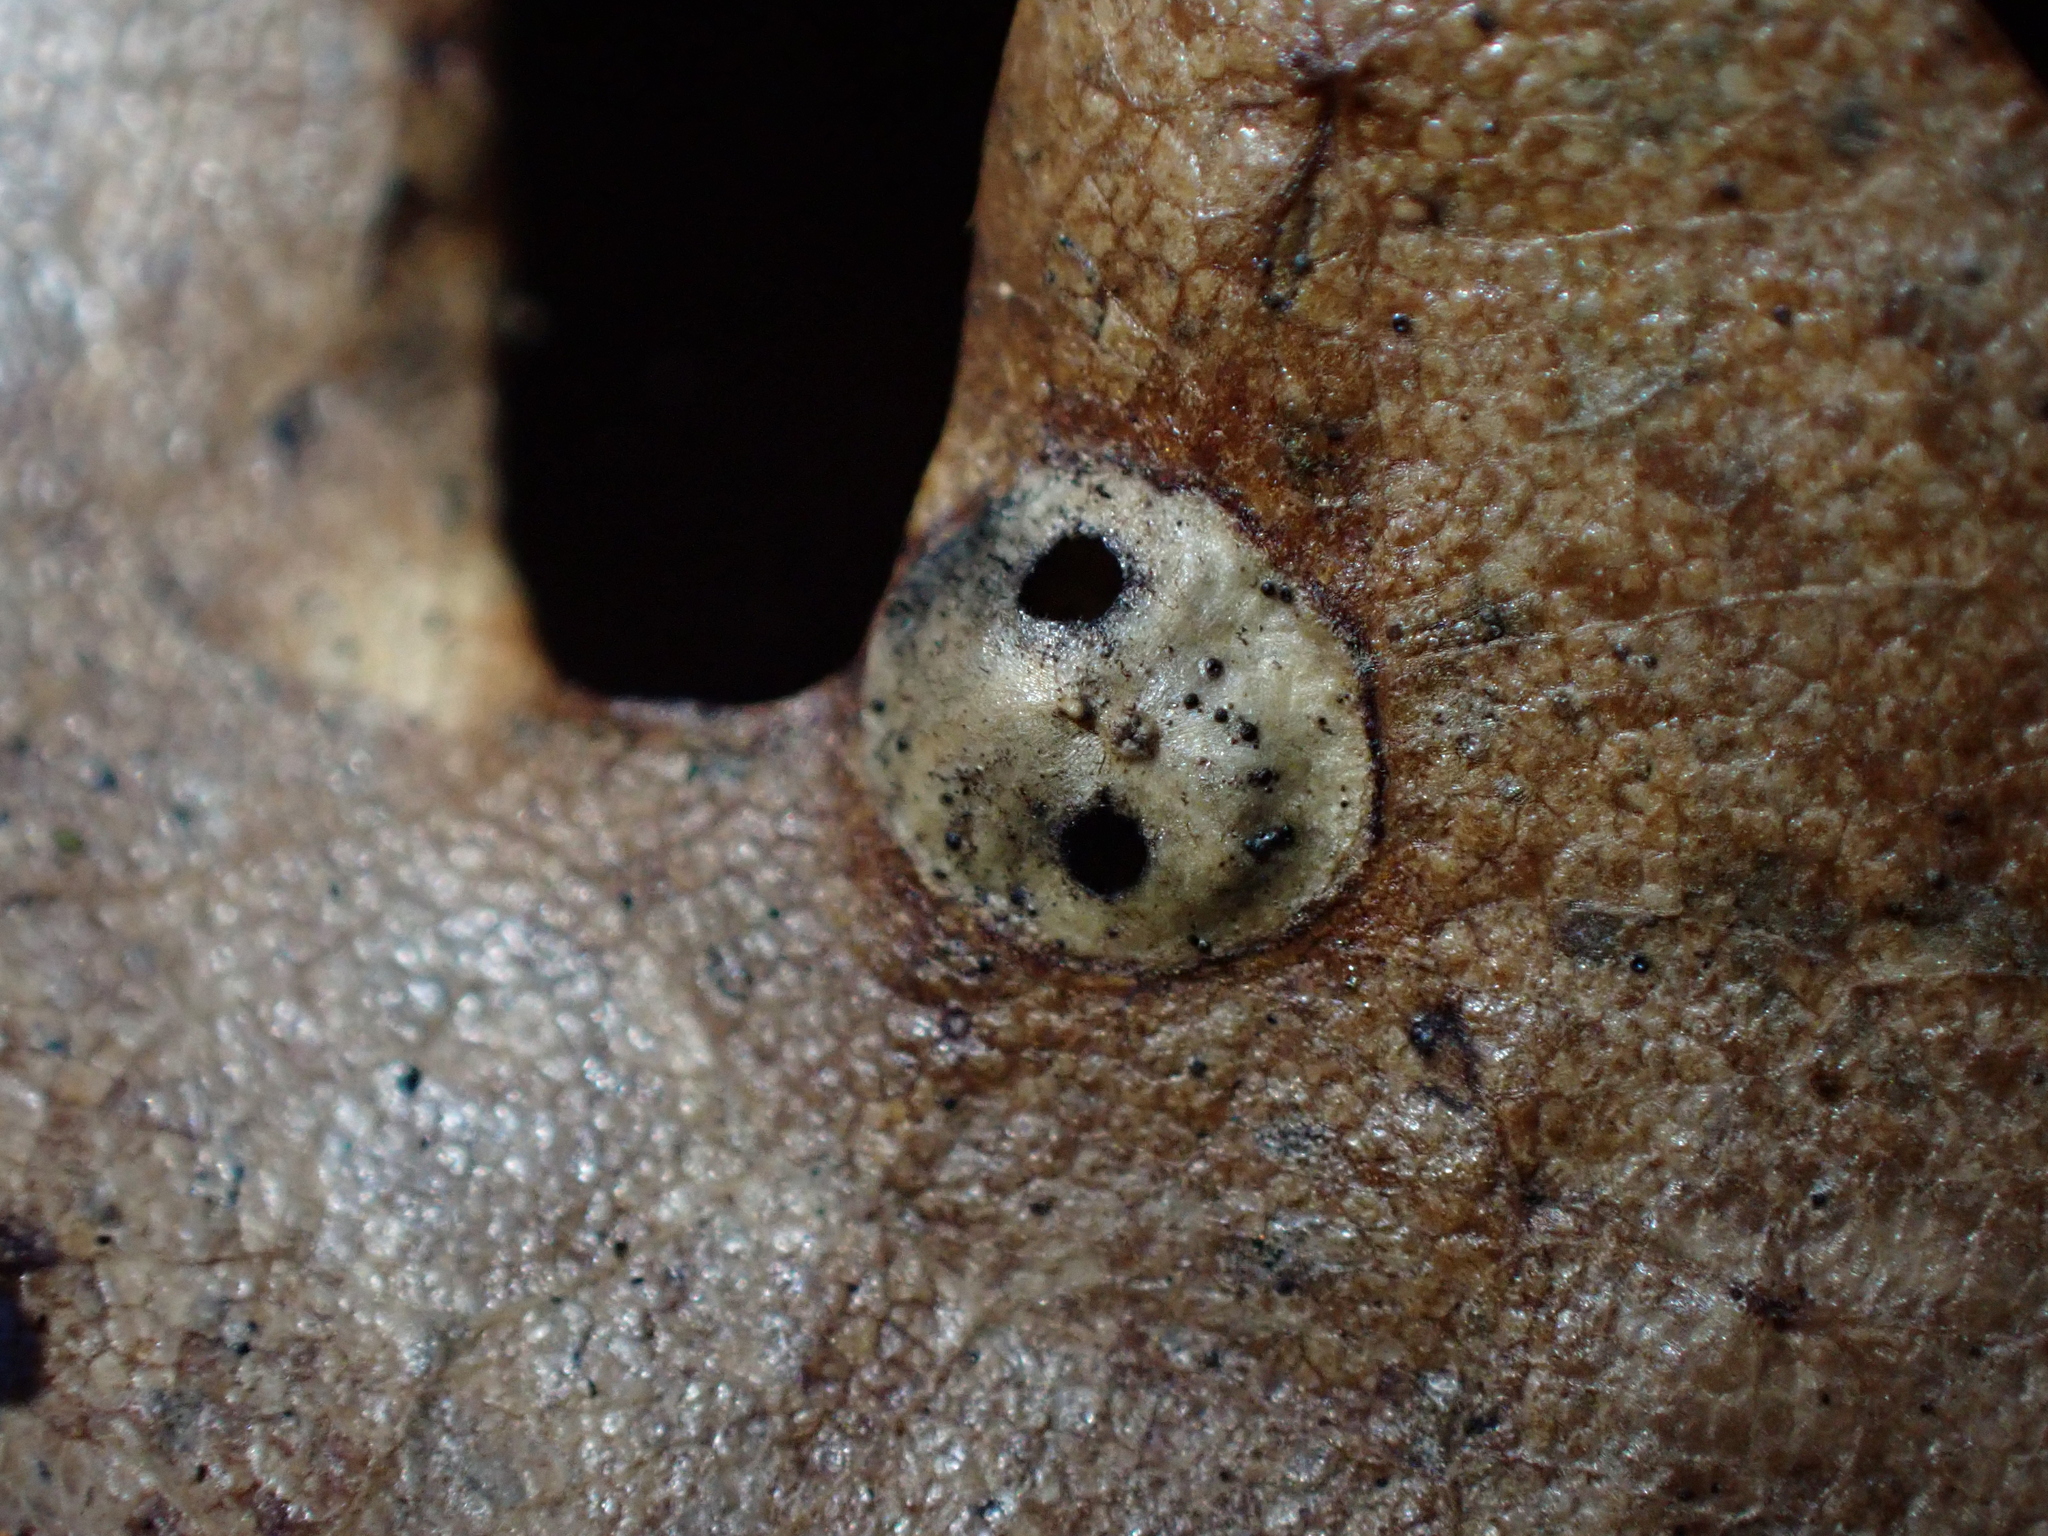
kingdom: Animalia
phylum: Arthropoda
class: Insecta
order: Hymenoptera
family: Cynipidae
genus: Neuroterus
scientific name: Neuroterus numismalis
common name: Silk-button spangle gall
